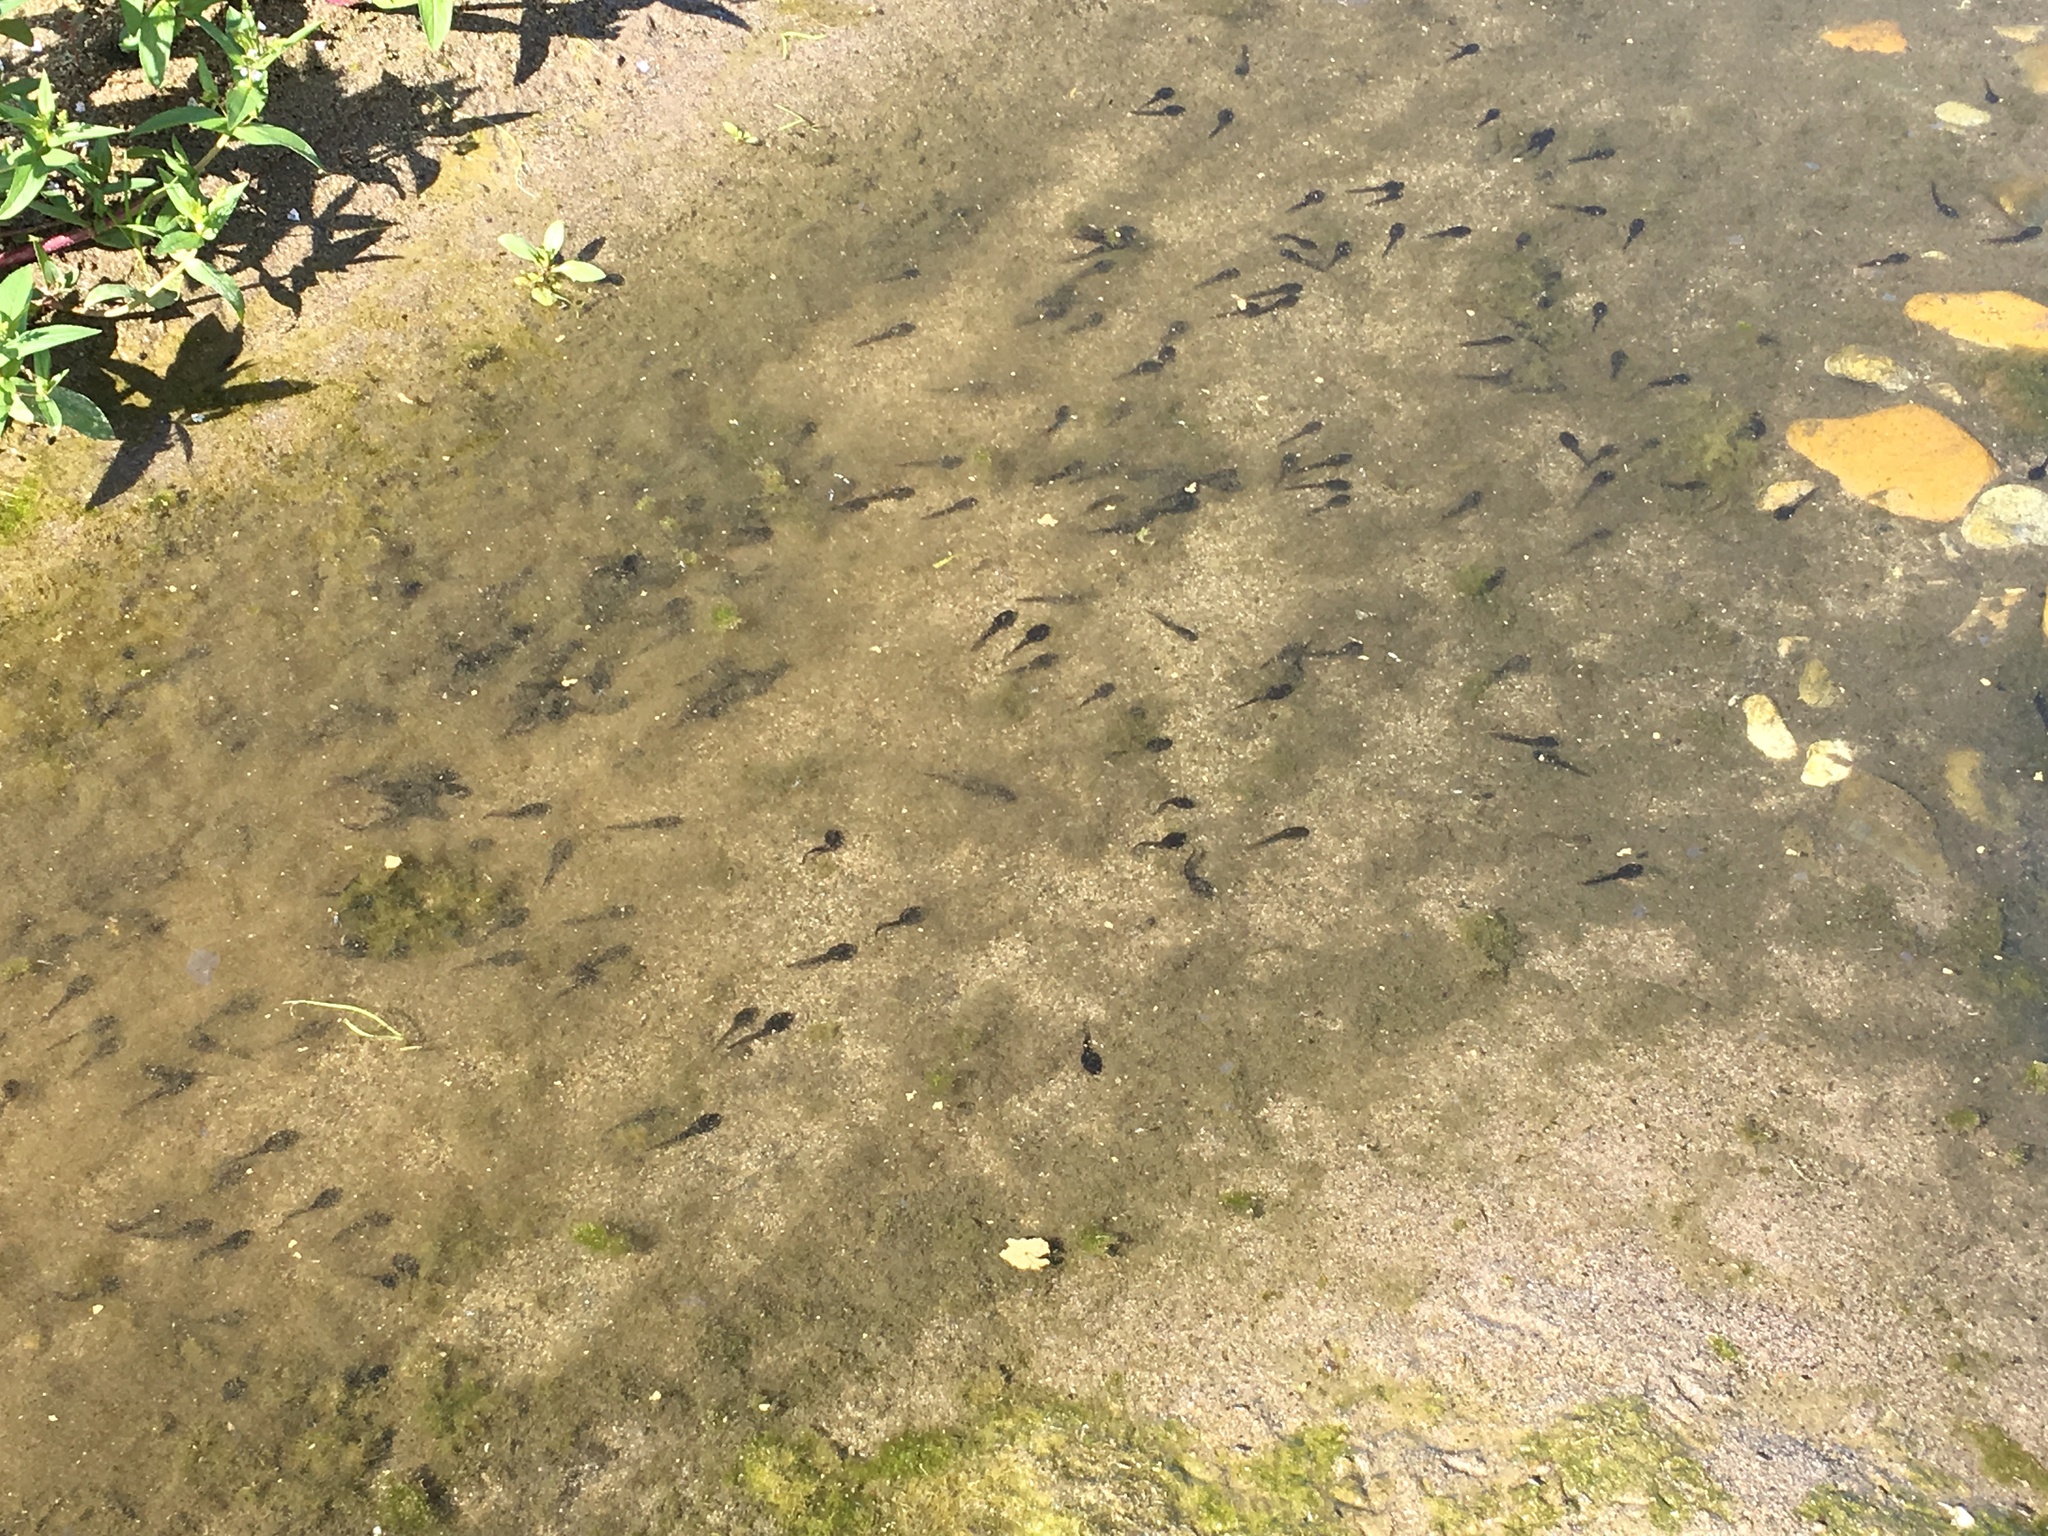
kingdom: Animalia
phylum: Chordata
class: Amphibia
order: Anura
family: Bufonidae
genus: Anaxyrus
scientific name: Anaxyrus boreas
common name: Western toad
